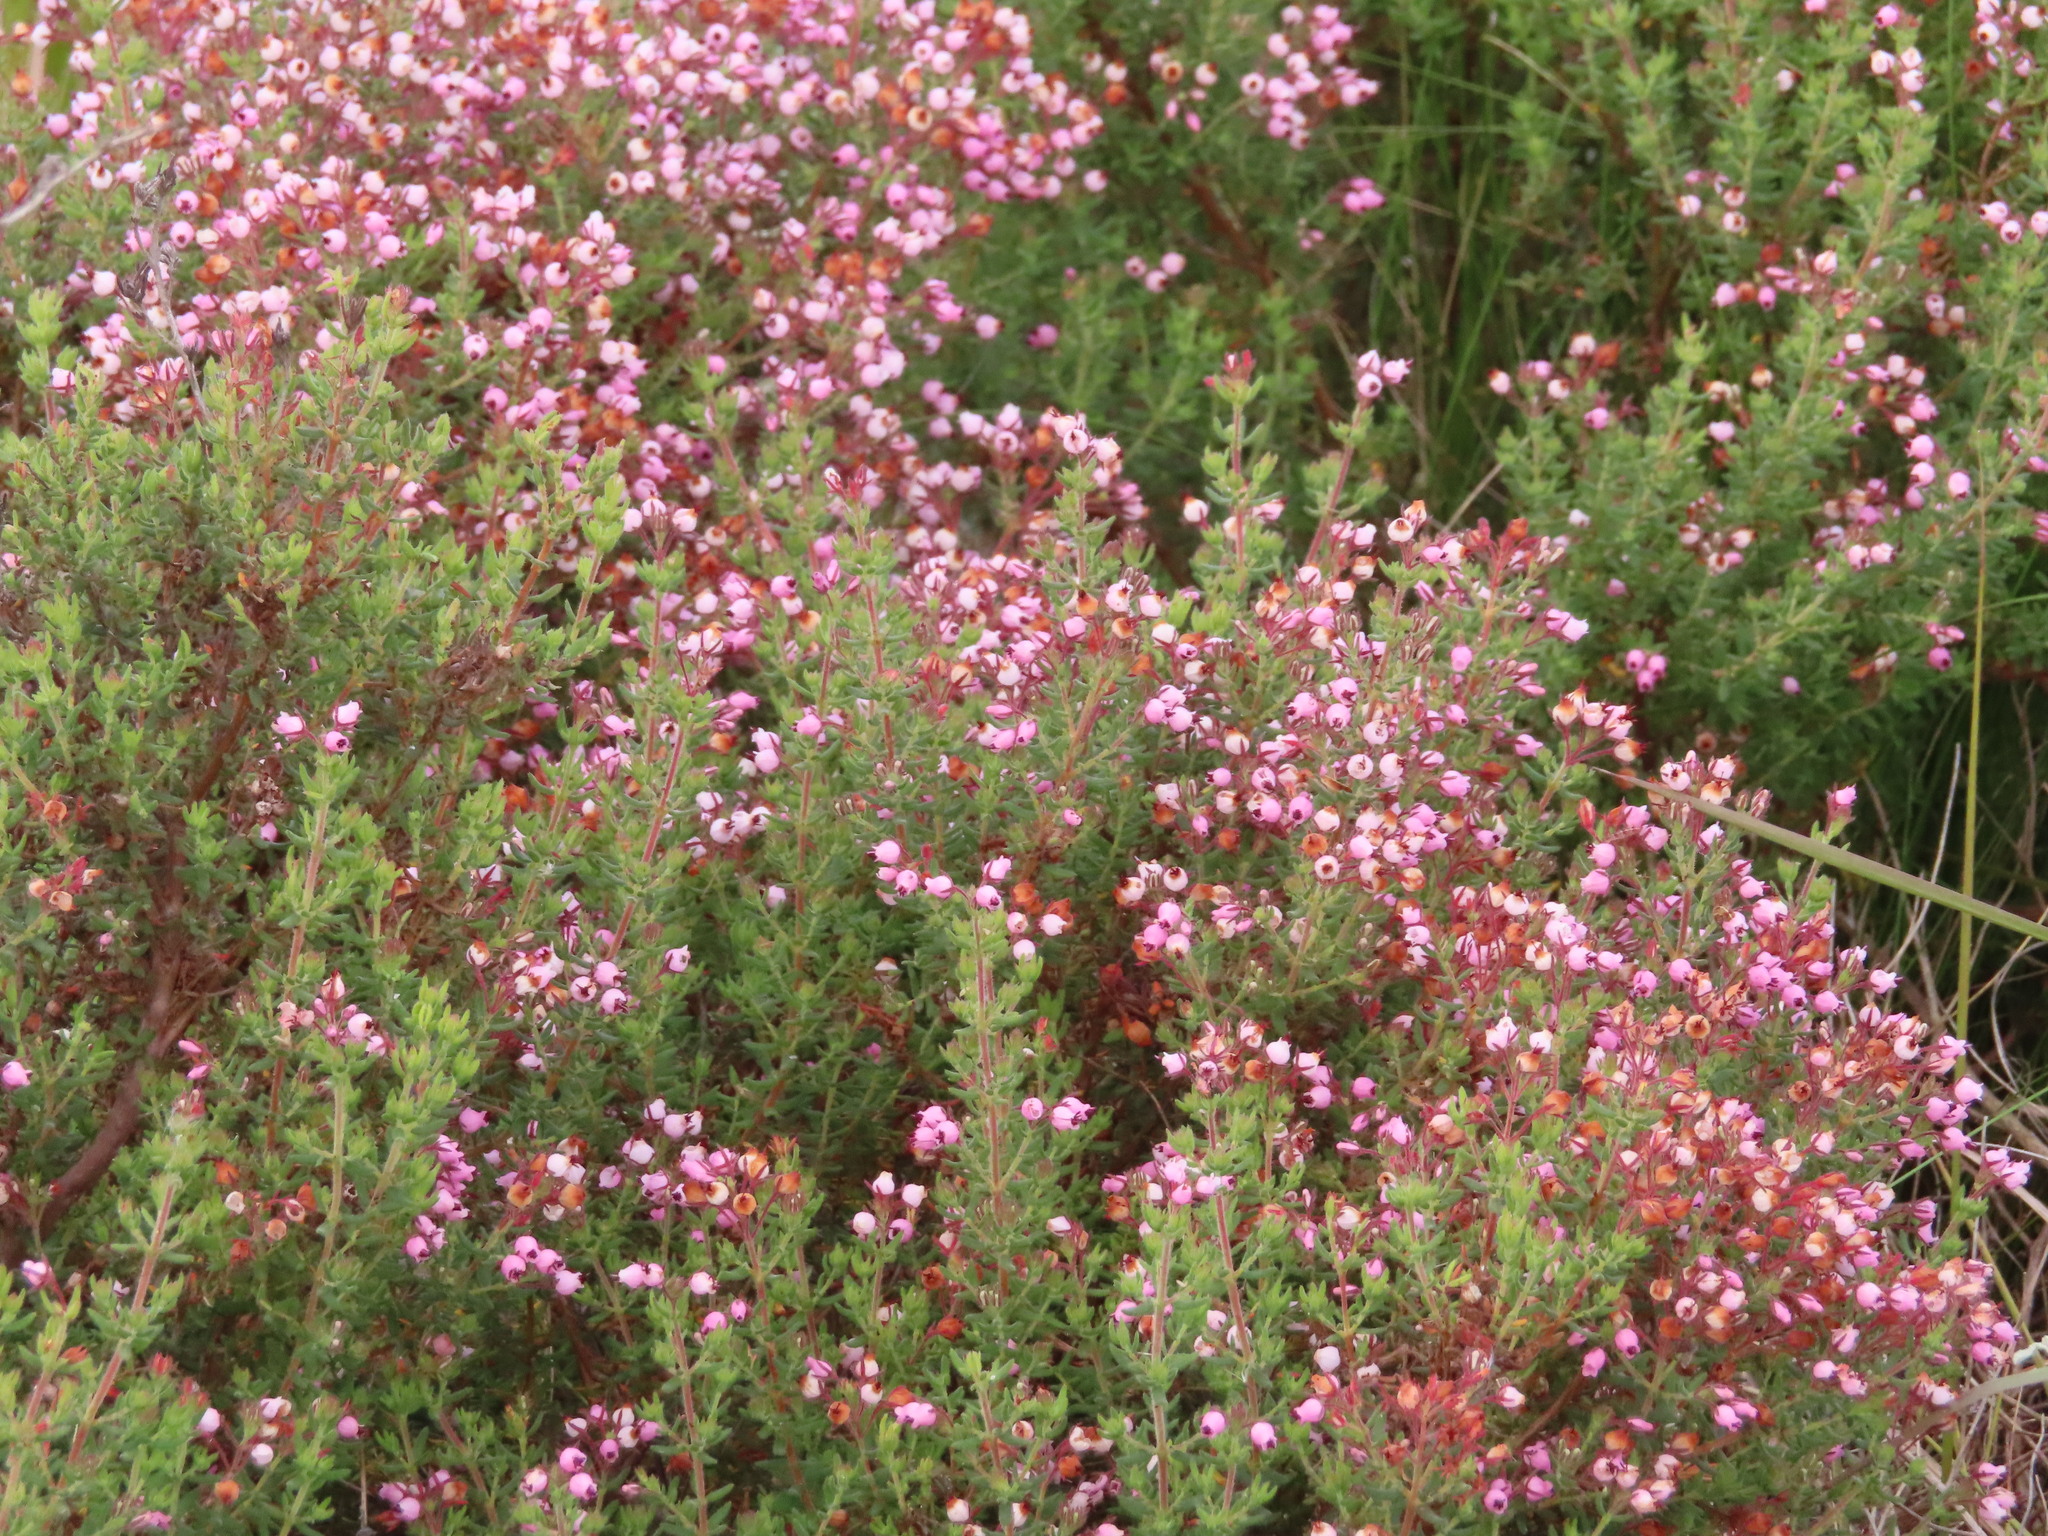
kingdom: Plantae
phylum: Tracheophyta
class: Magnoliopsida
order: Ericales
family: Ericaceae
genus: Erica
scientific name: Erica hirta
